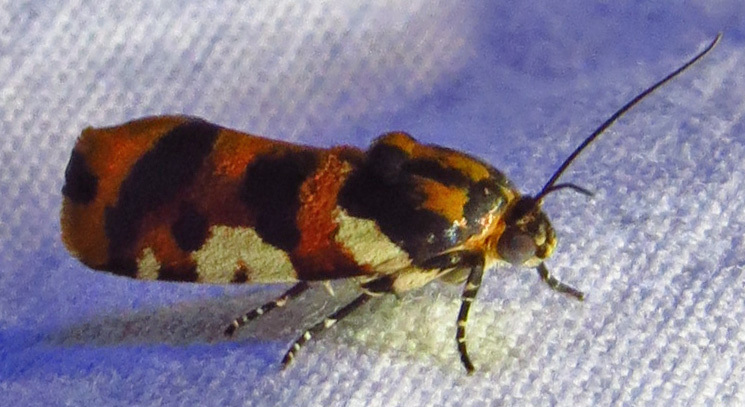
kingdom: Animalia
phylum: Arthropoda
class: Insecta
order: Lepidoptera
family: Noctuidae
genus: Acontia
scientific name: Acontia dama
